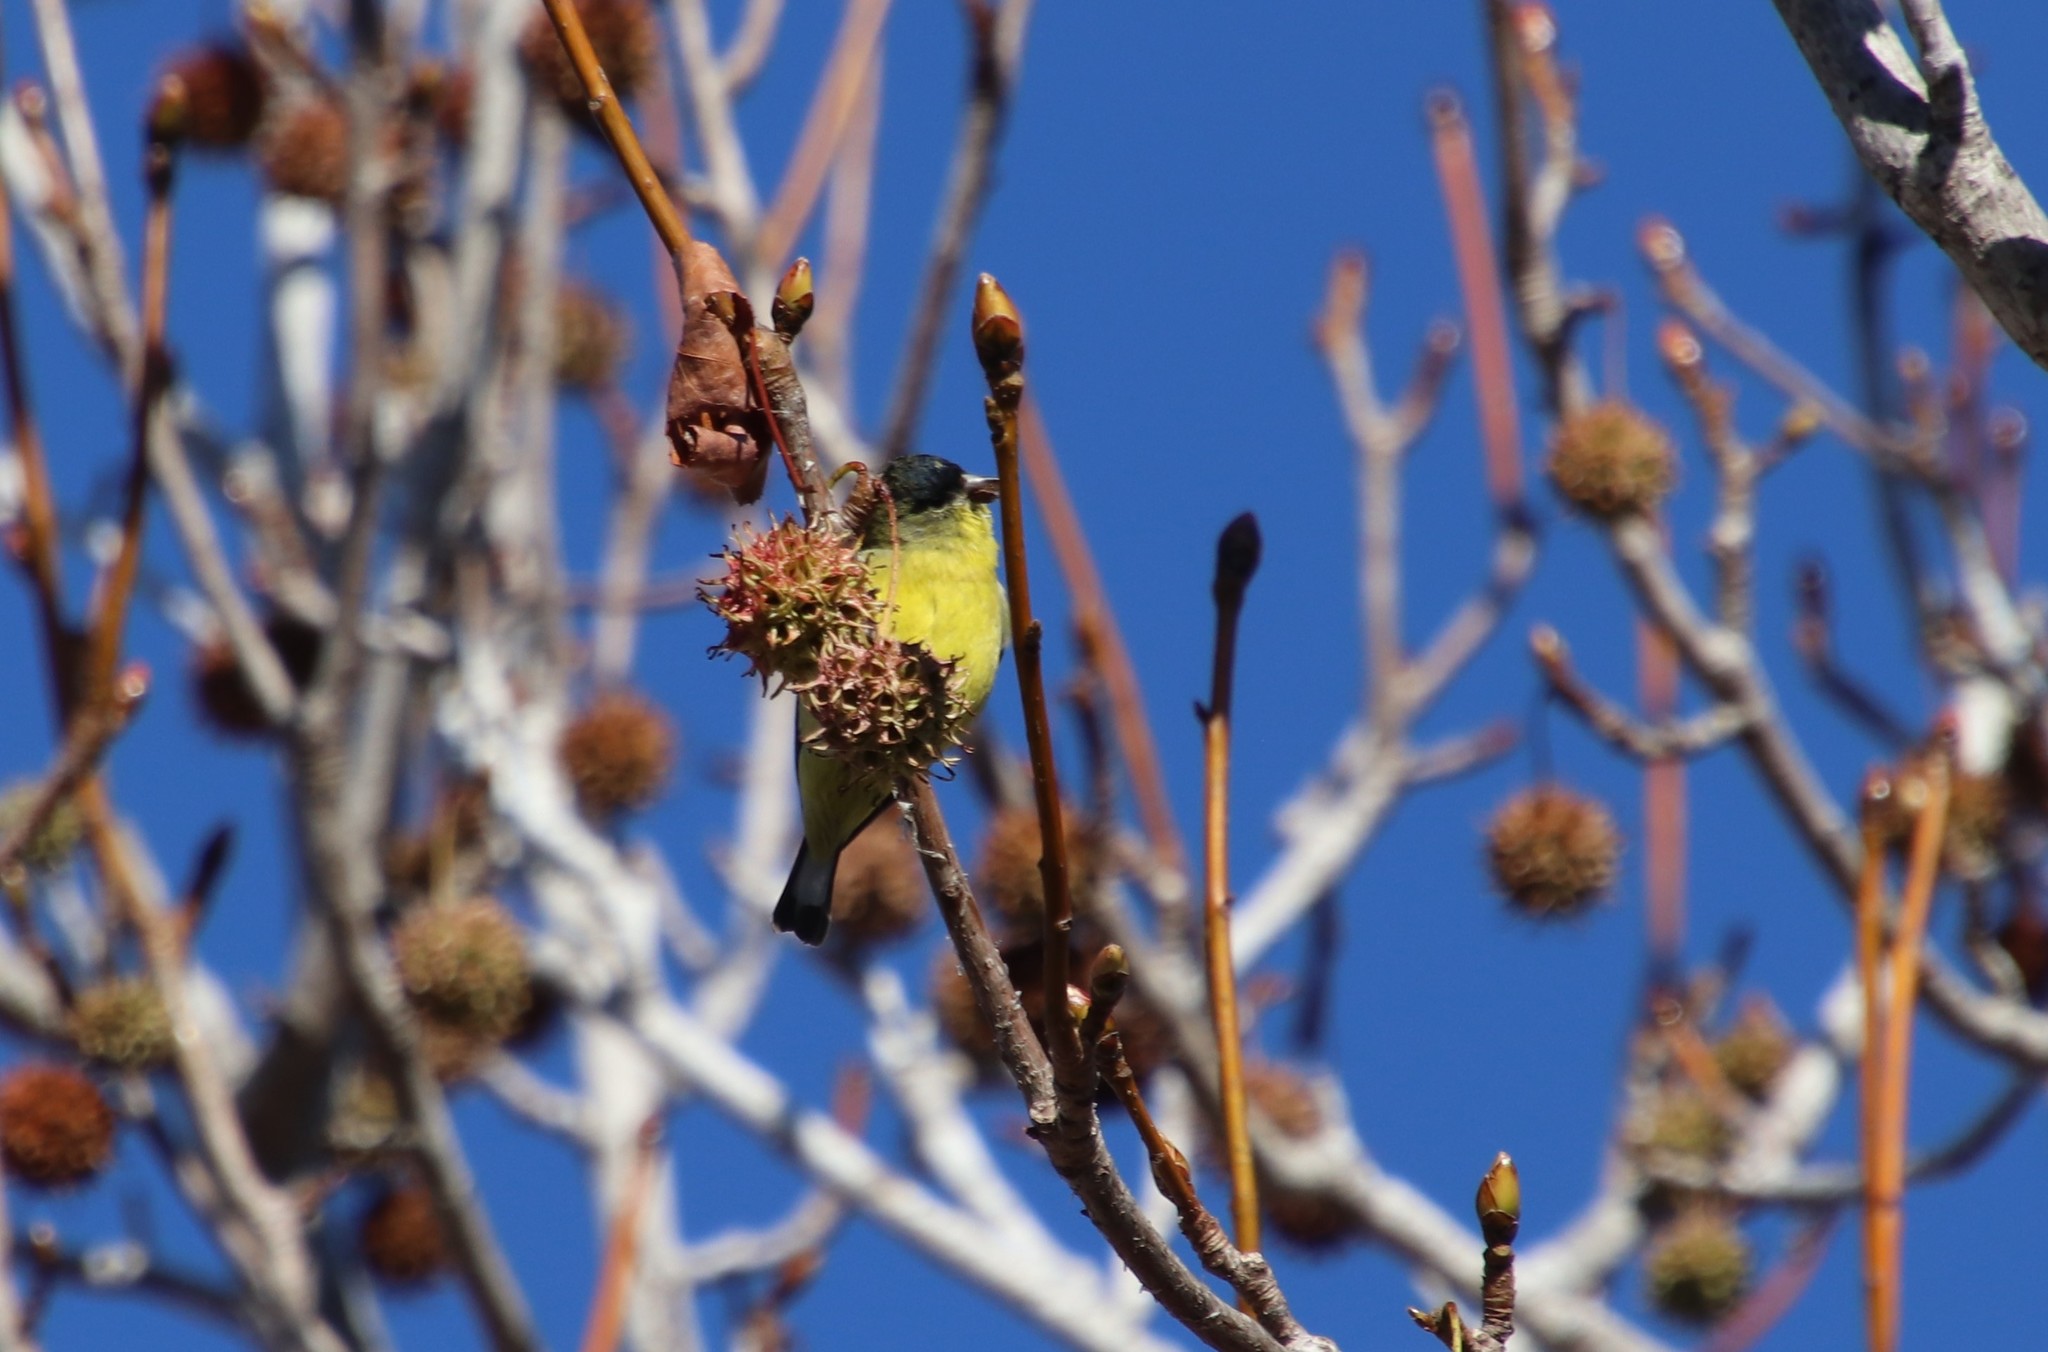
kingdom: Animalia
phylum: Chordata
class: Aves
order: Passeriformes
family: Fringillidae
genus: Spinus
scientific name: Spinus psaltria
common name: Lesser goldfinch
